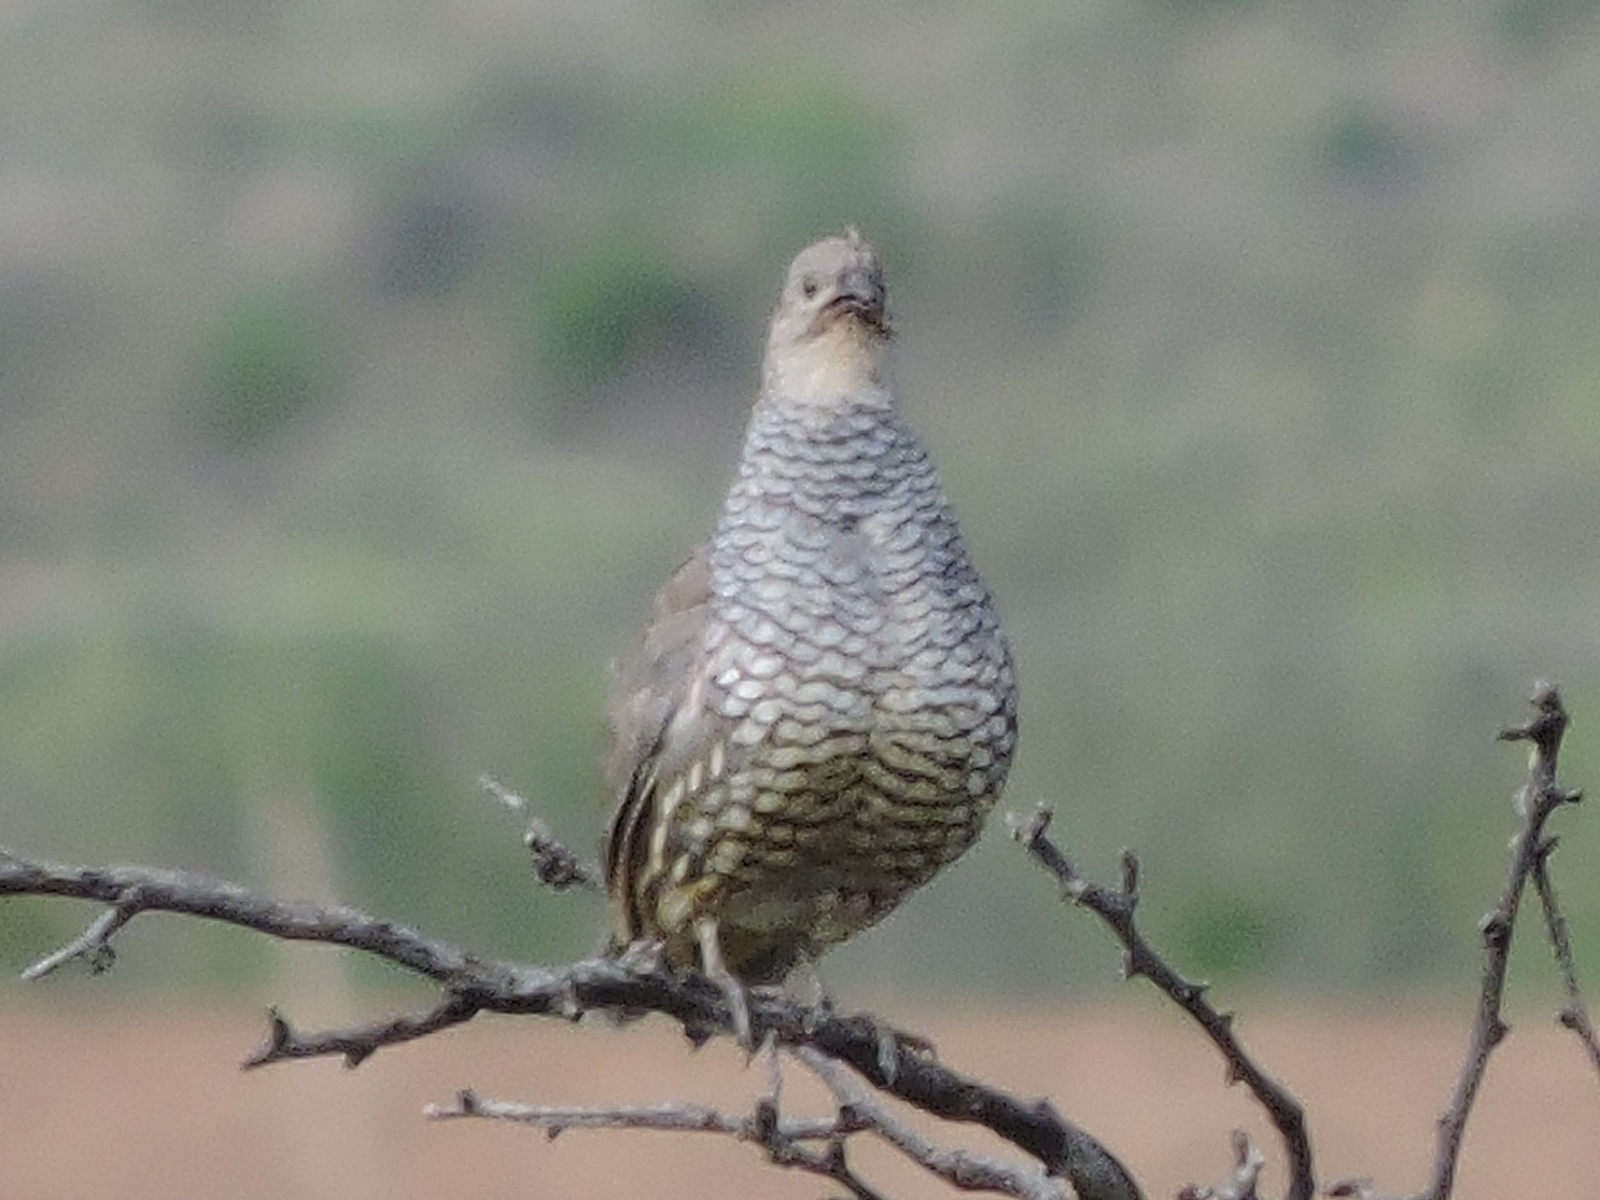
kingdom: Animalia
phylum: Chordata
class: Aves
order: Galliformes
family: Odontophoridae
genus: Callipepla
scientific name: Callipepla squamata
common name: Scaled quail
